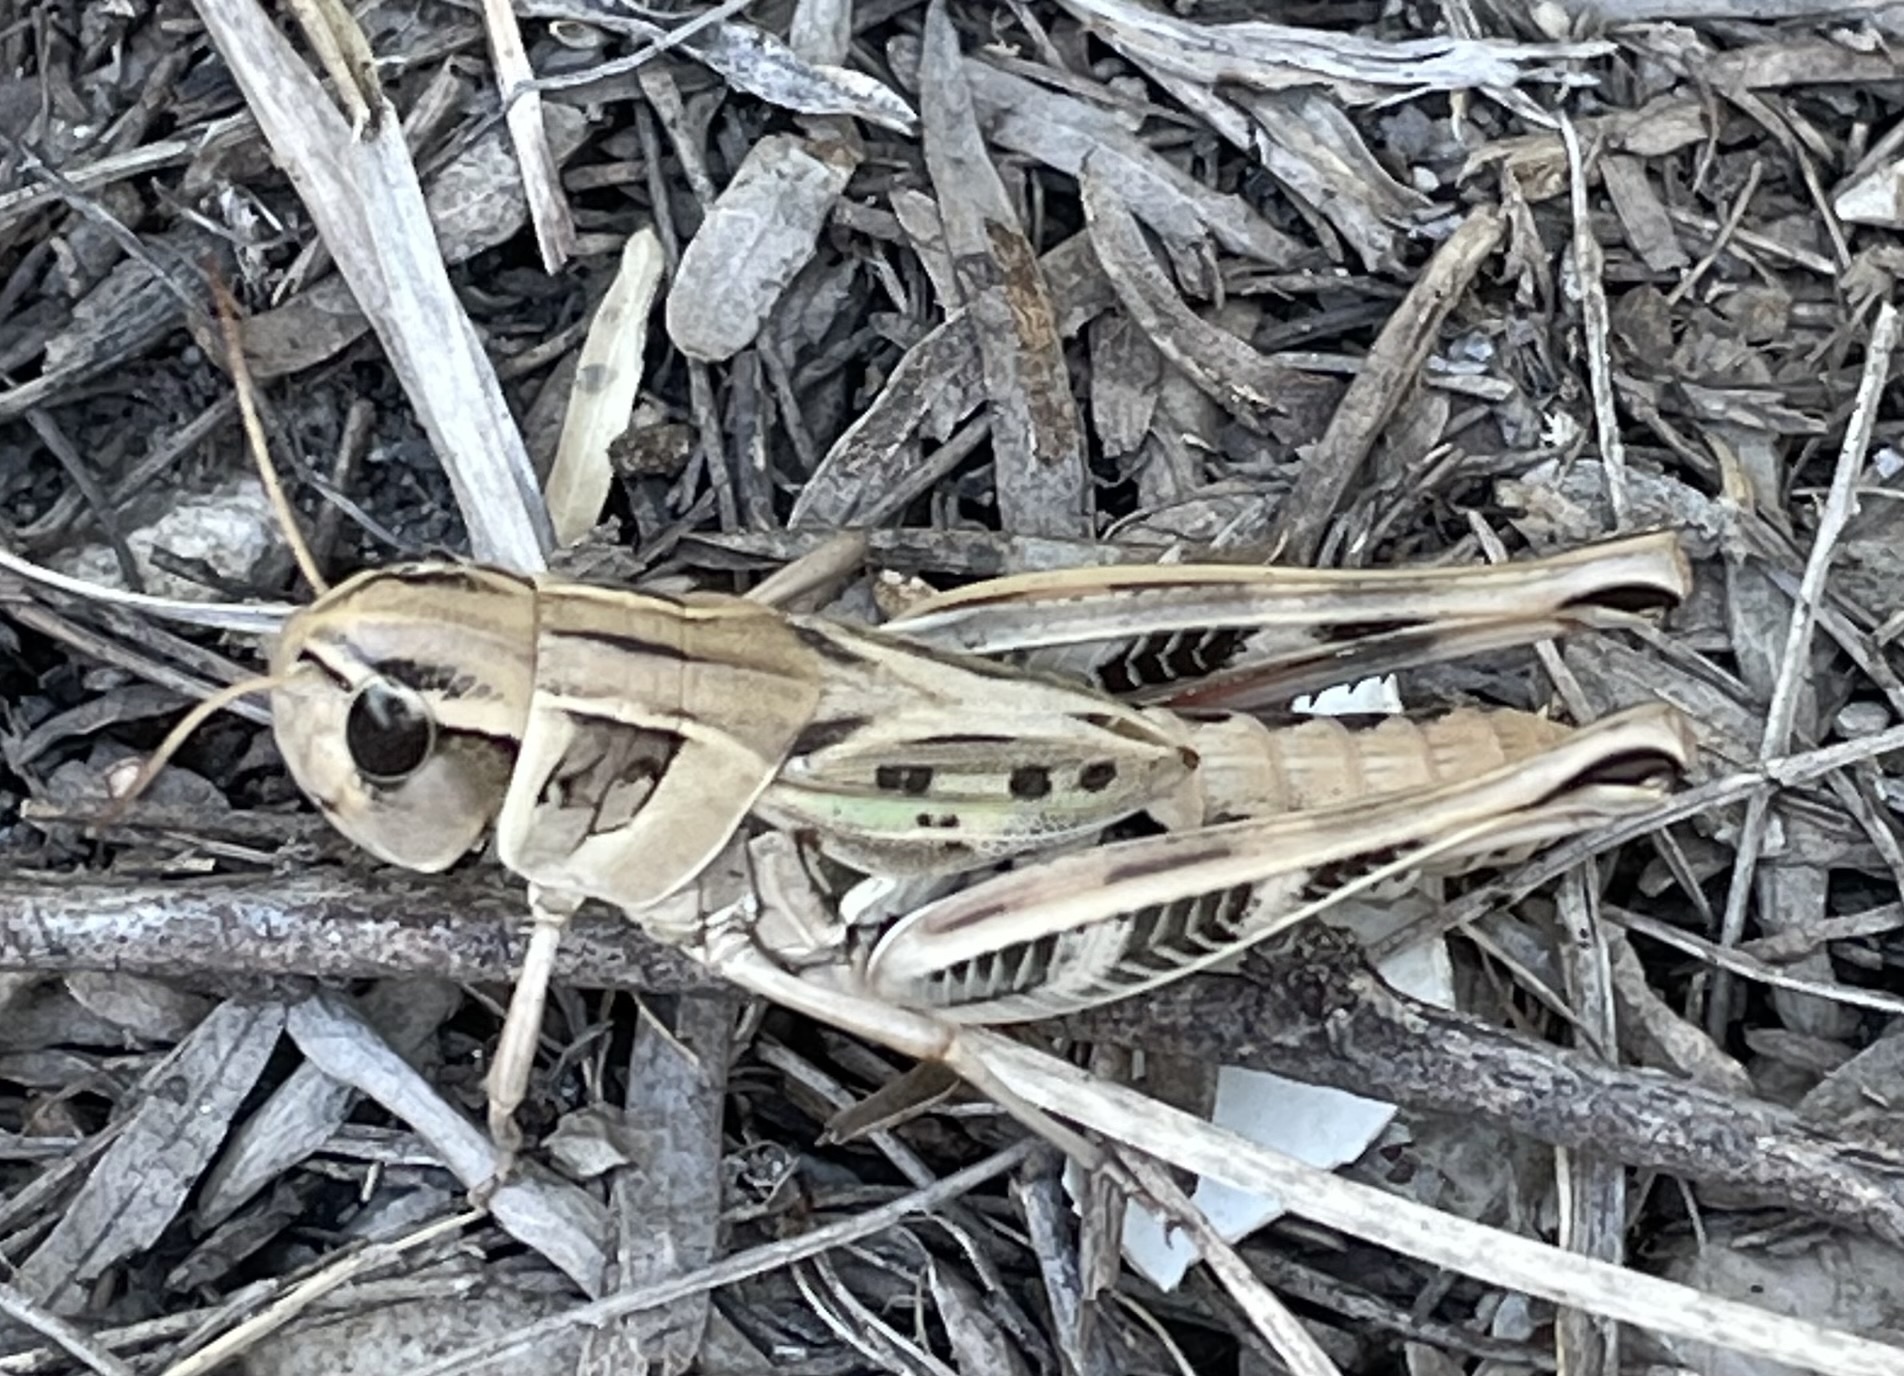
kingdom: Animalia
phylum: Arthropoda
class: Insecta
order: Orthoptera
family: Acrididae
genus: Boopedon
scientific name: Boopedon gracile
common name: Graceful range grasshopper
